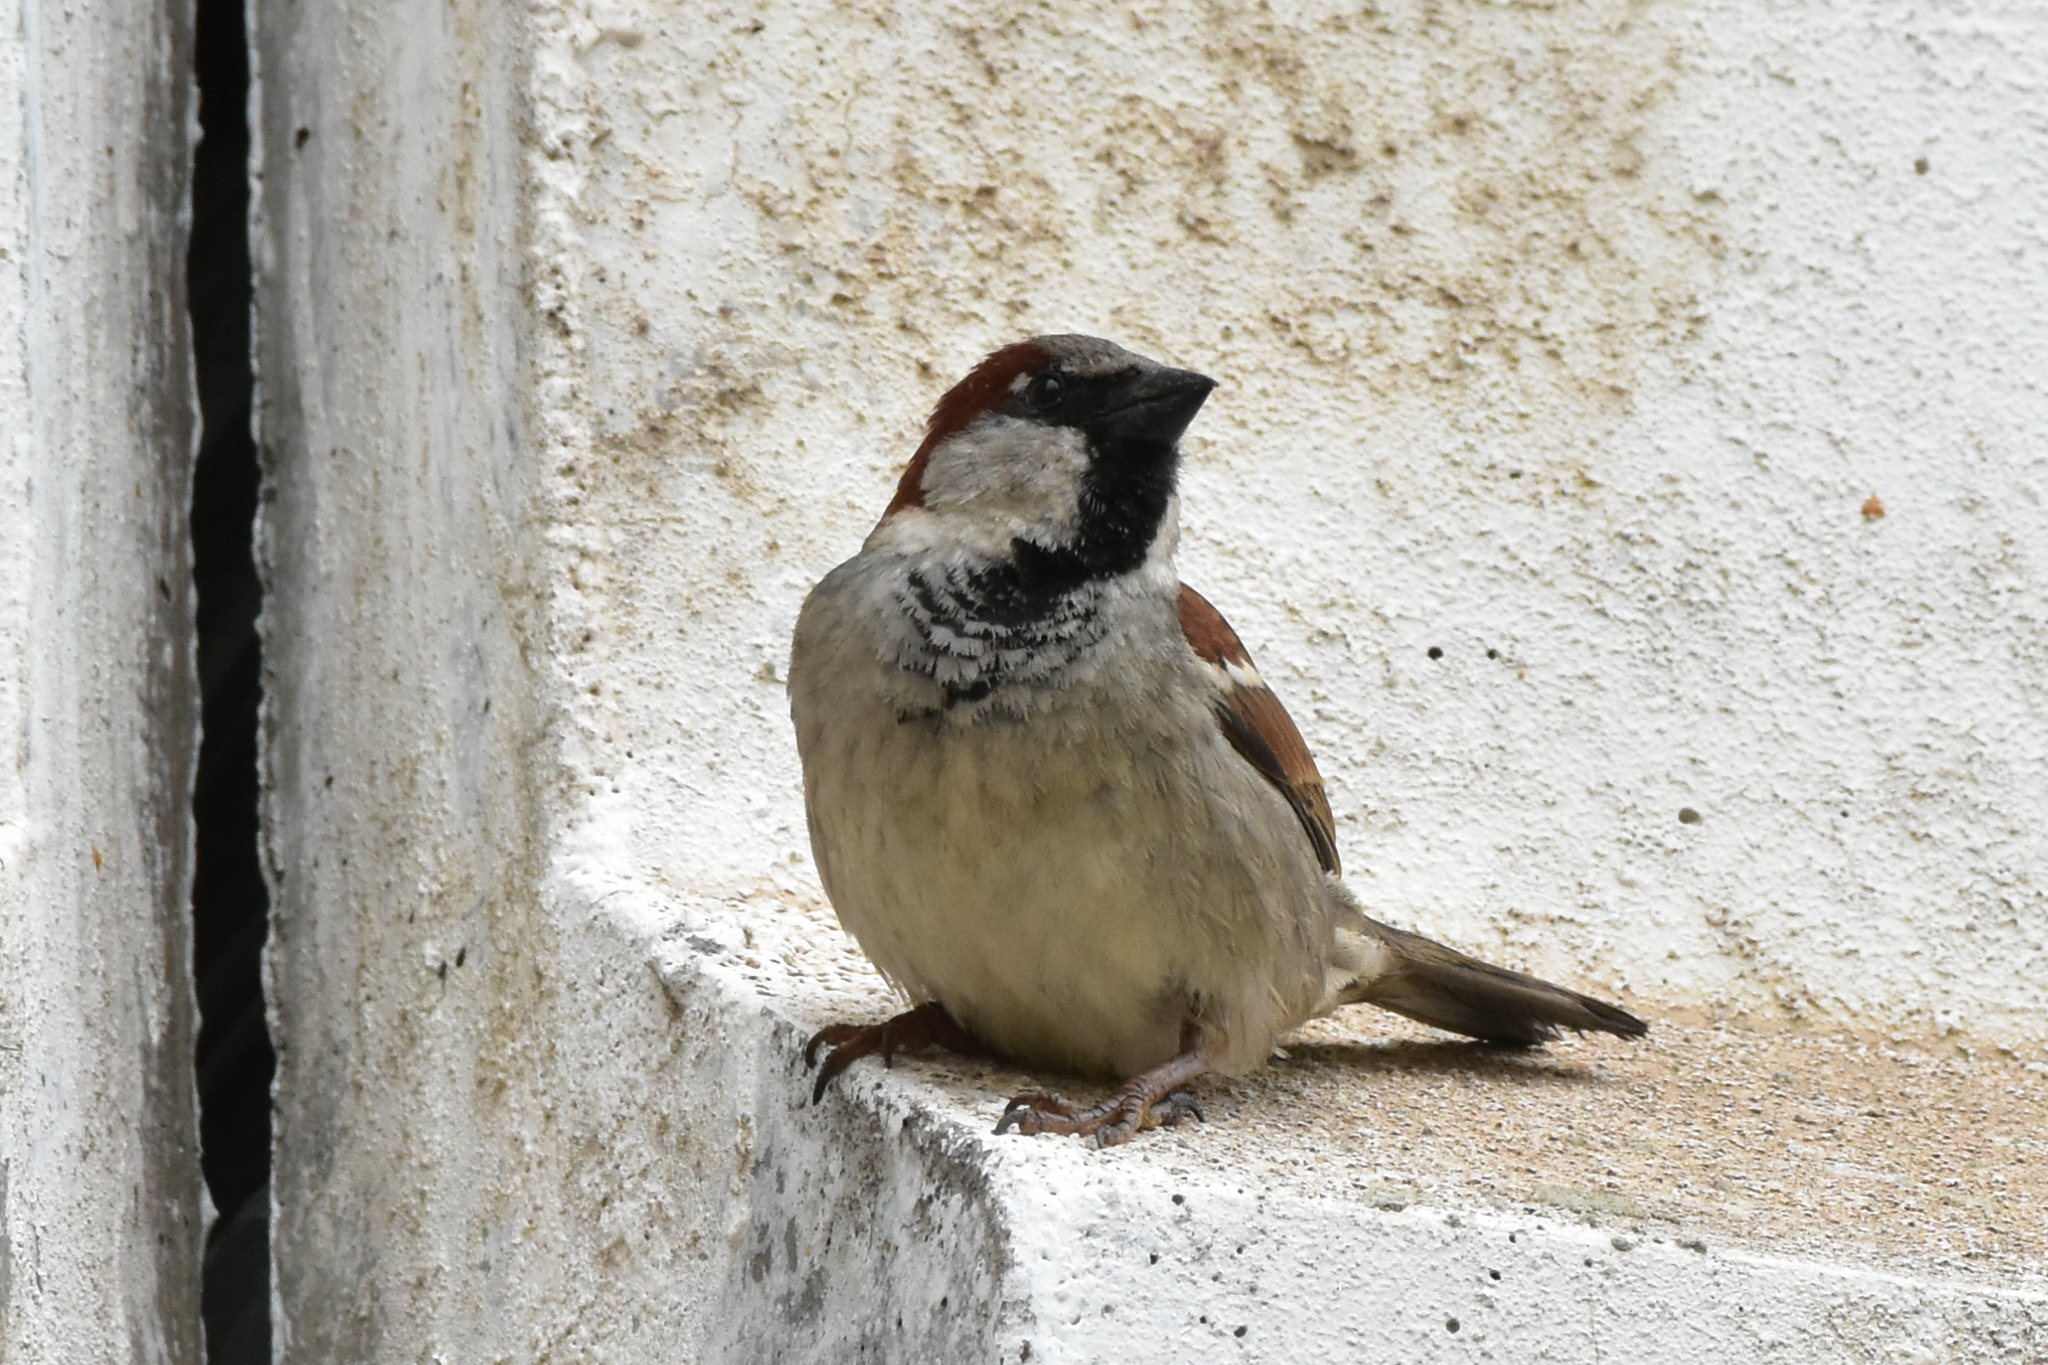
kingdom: Animalia
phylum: Chordata
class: Aves
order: Passeriformes
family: Passeridae
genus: Passer
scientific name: Passer domesticus
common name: House sparrow
